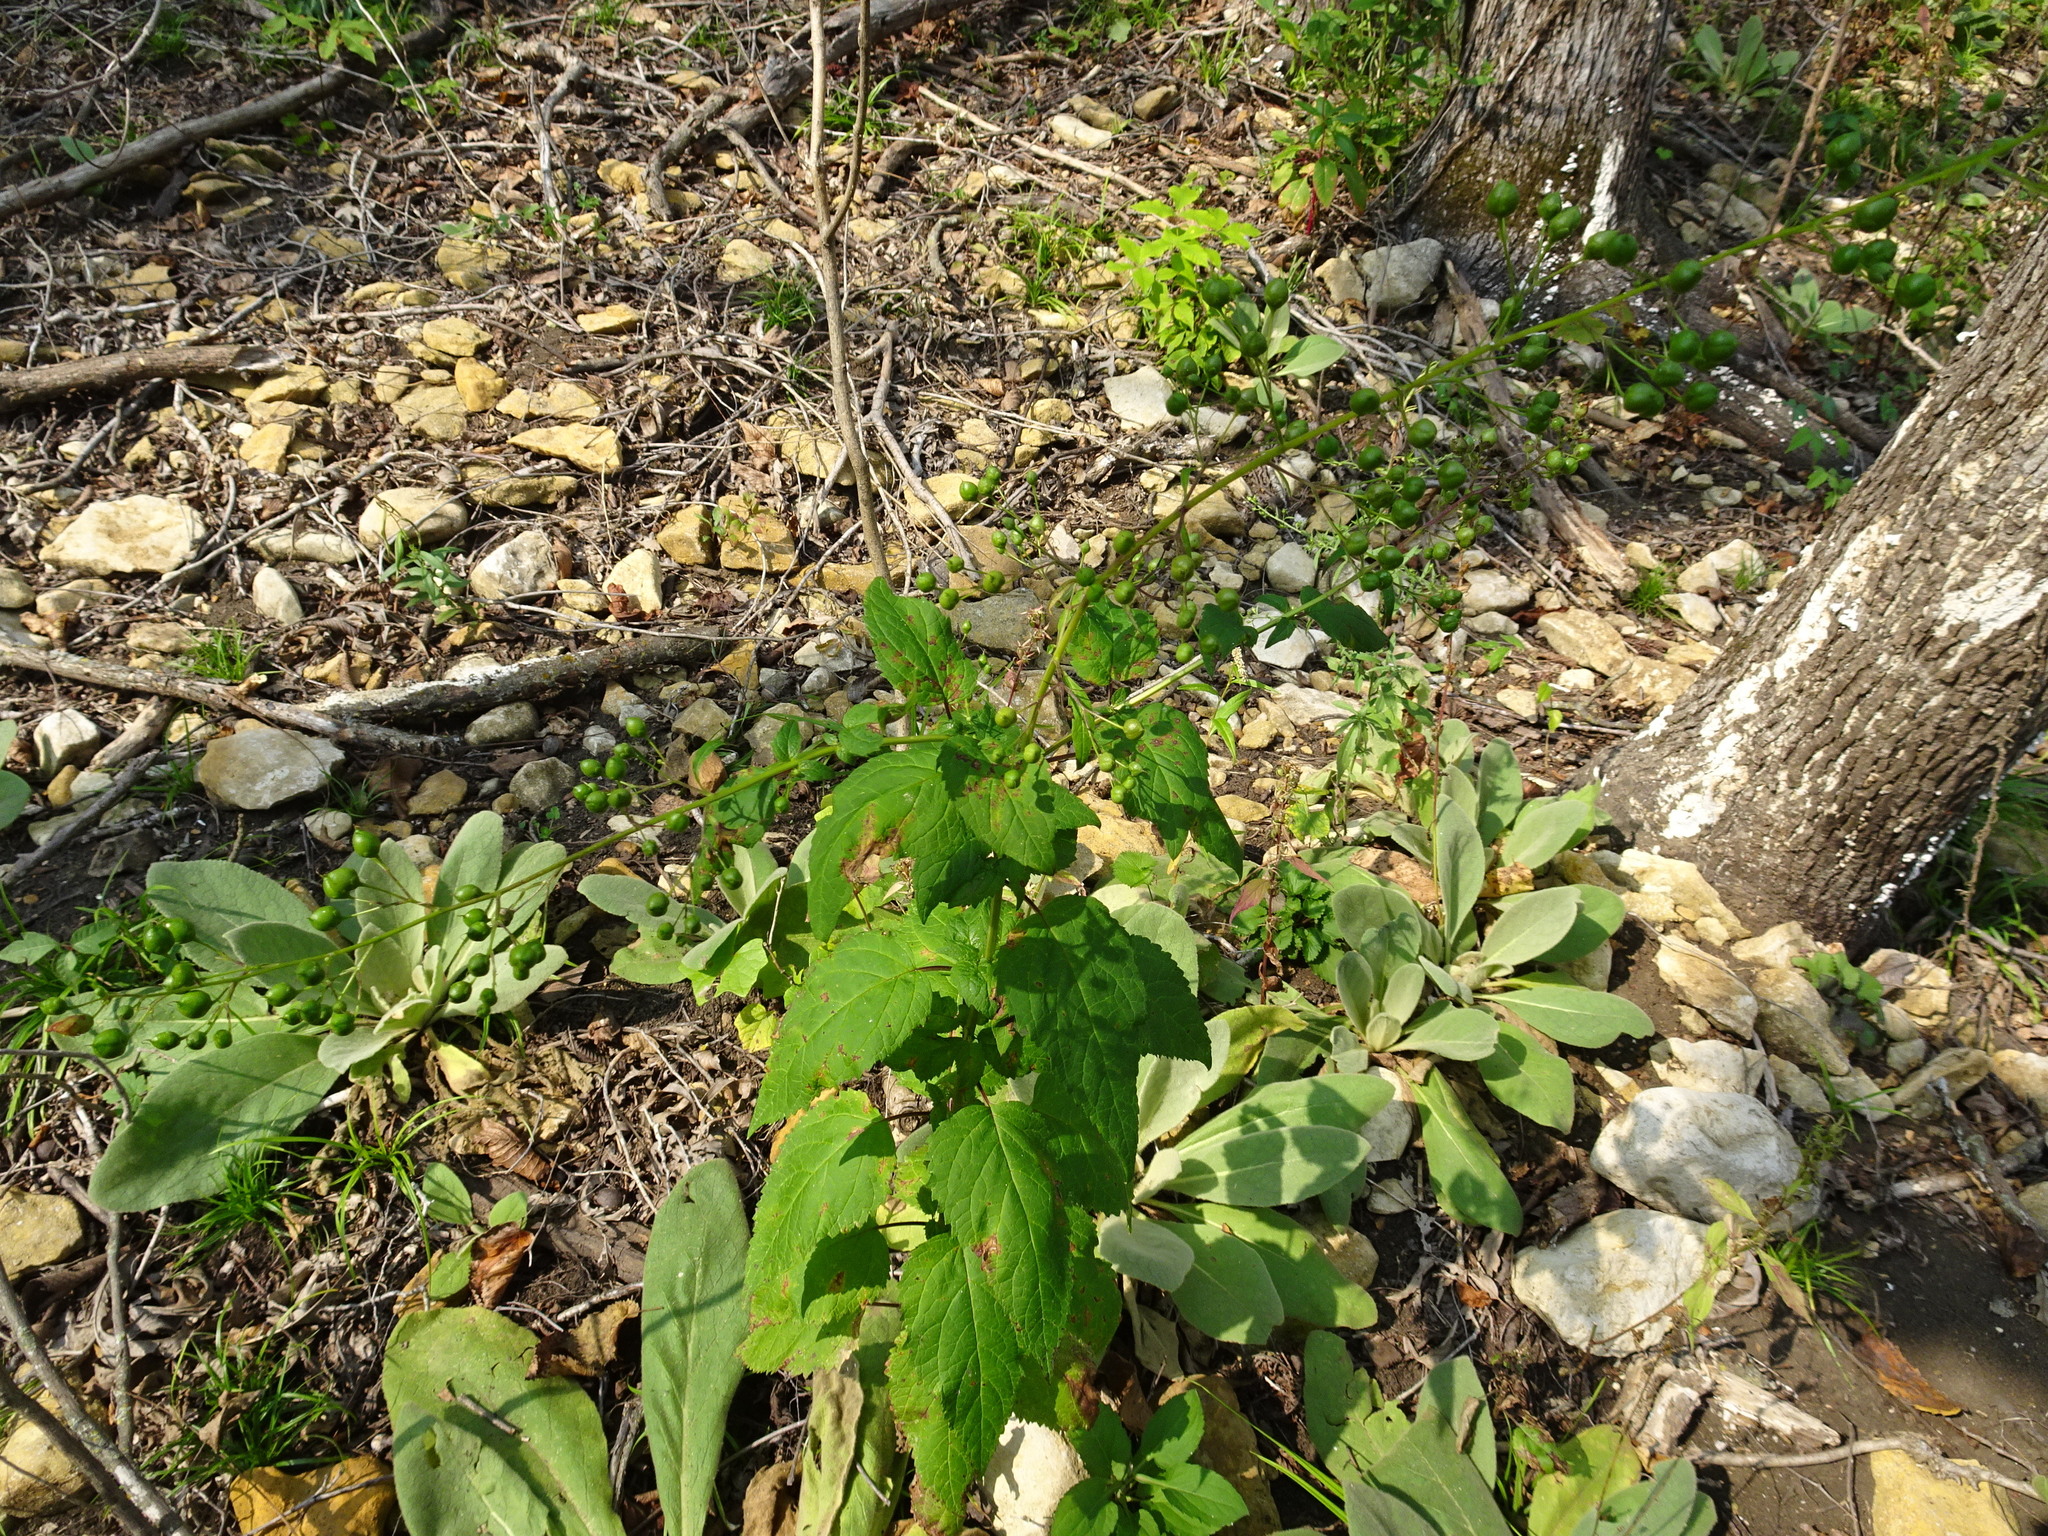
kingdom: Plantae
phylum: Tracheophyta
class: Magnoliopsida
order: Lamiales
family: Scrophulariaceae
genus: Scrophularia
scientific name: Scrophularia marilandica
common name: Eastern figwort
